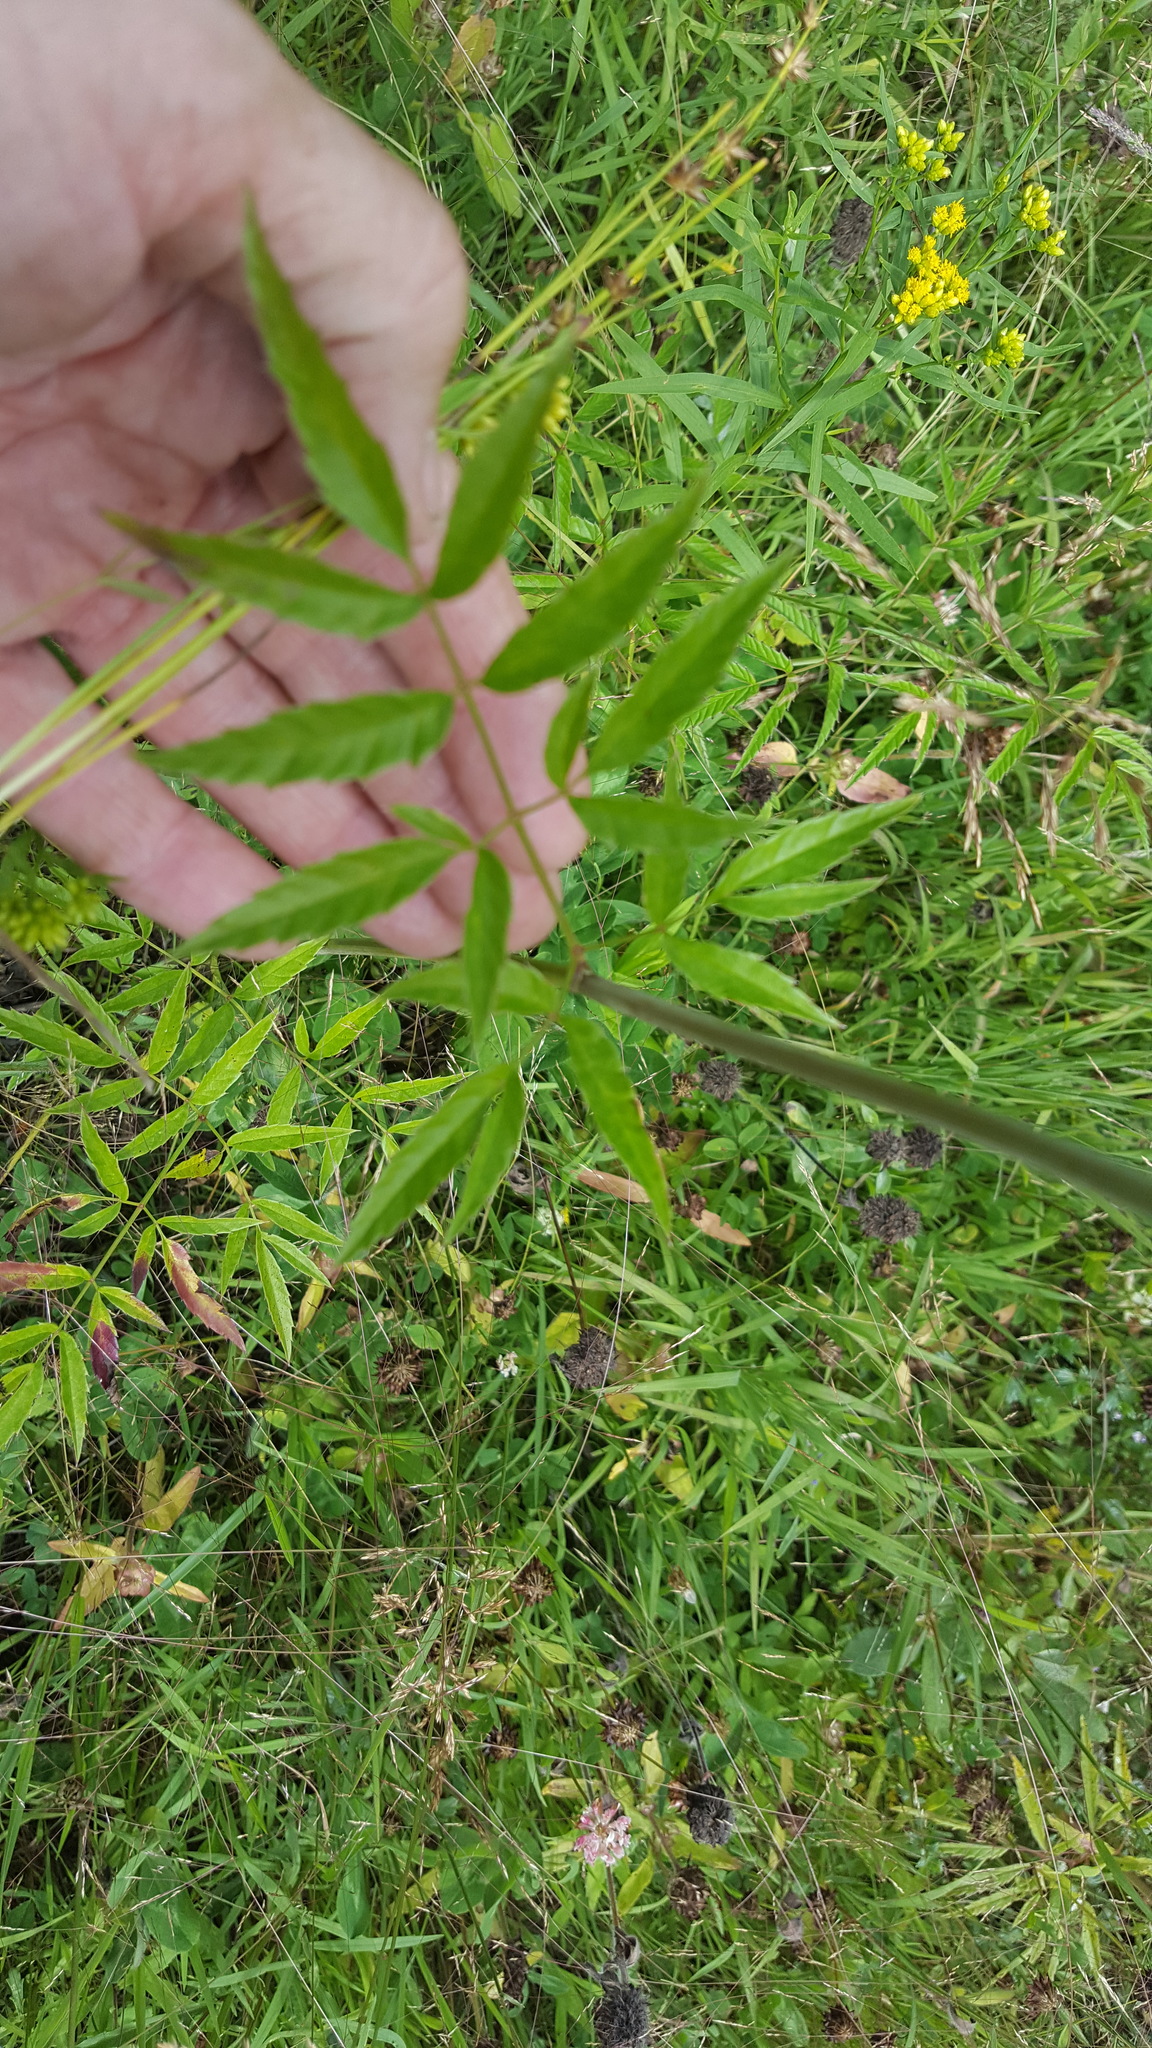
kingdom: Plantae
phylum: Tracheophyta
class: Magnoliopsida
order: Apiales
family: Apiaceae
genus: Cicuta
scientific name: Cicuta maculata
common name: Spotted cowbane
